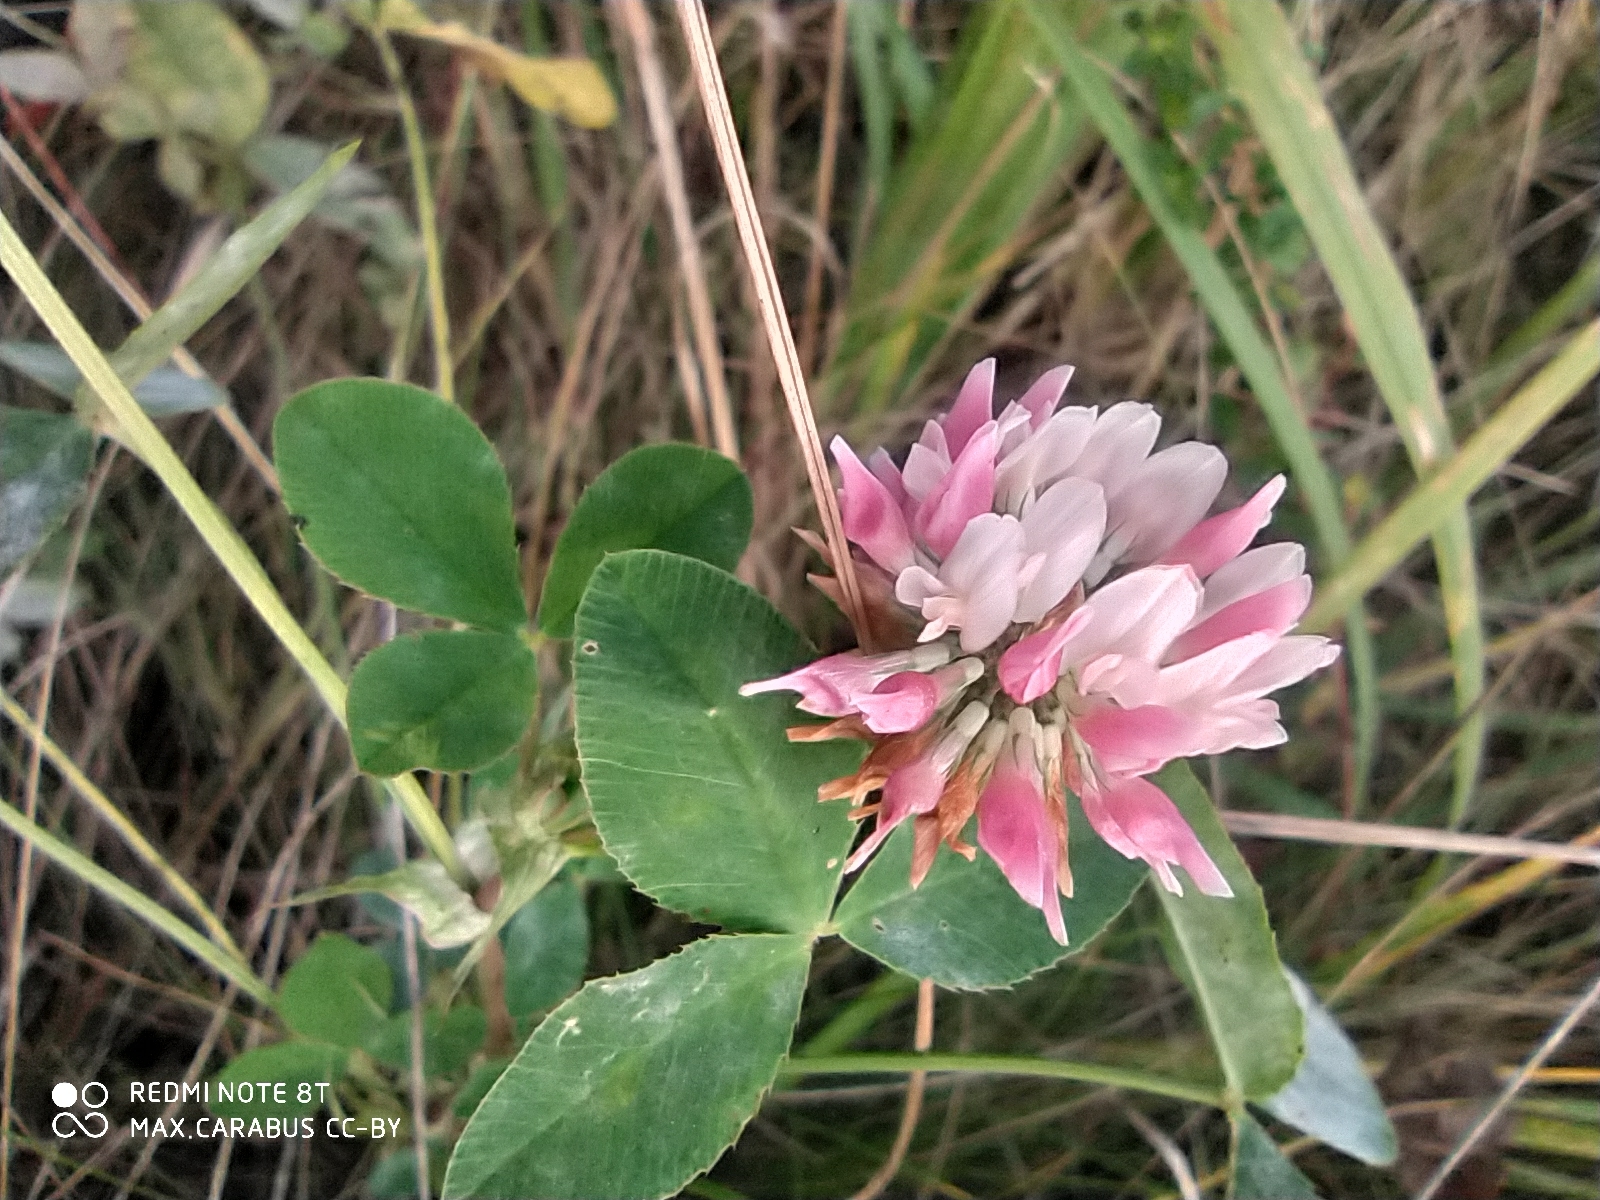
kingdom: Plantae
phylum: Tracheophyta
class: Magnoliopsida
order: Fabales
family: Fabaceae
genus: Trifolium
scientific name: Trifolium hybridum
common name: Alsike clover
